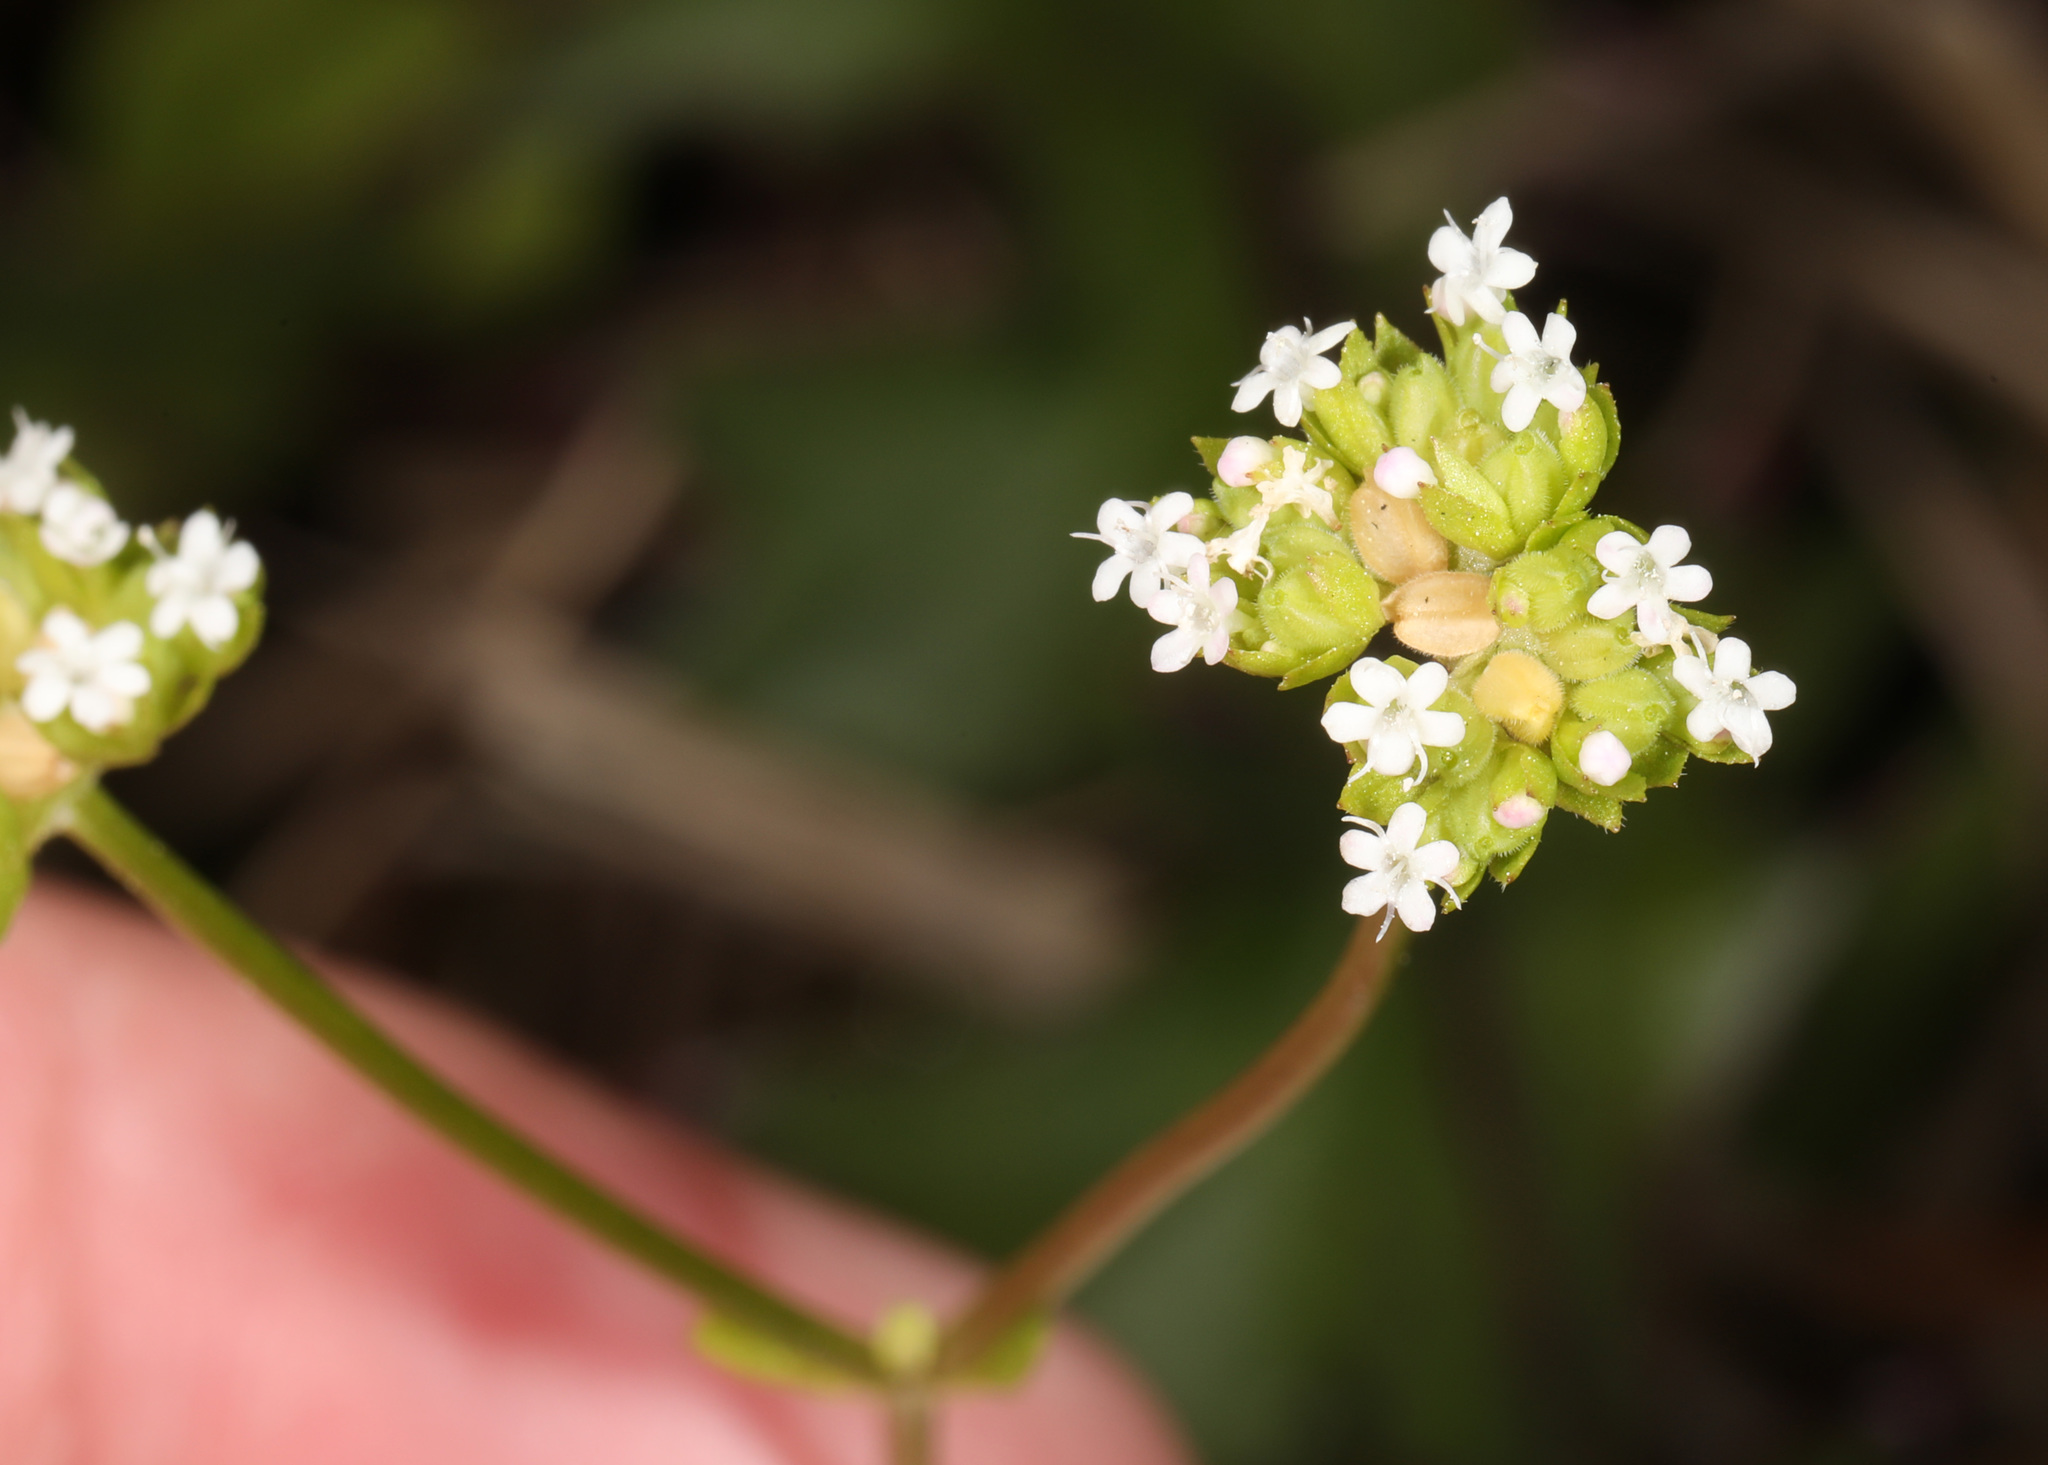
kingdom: Plantae
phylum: Tracheophyta
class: Magnoliopsida
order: Dipsacales
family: Caprifoliaceae
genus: Valerianella
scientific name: Valerianella radiata
